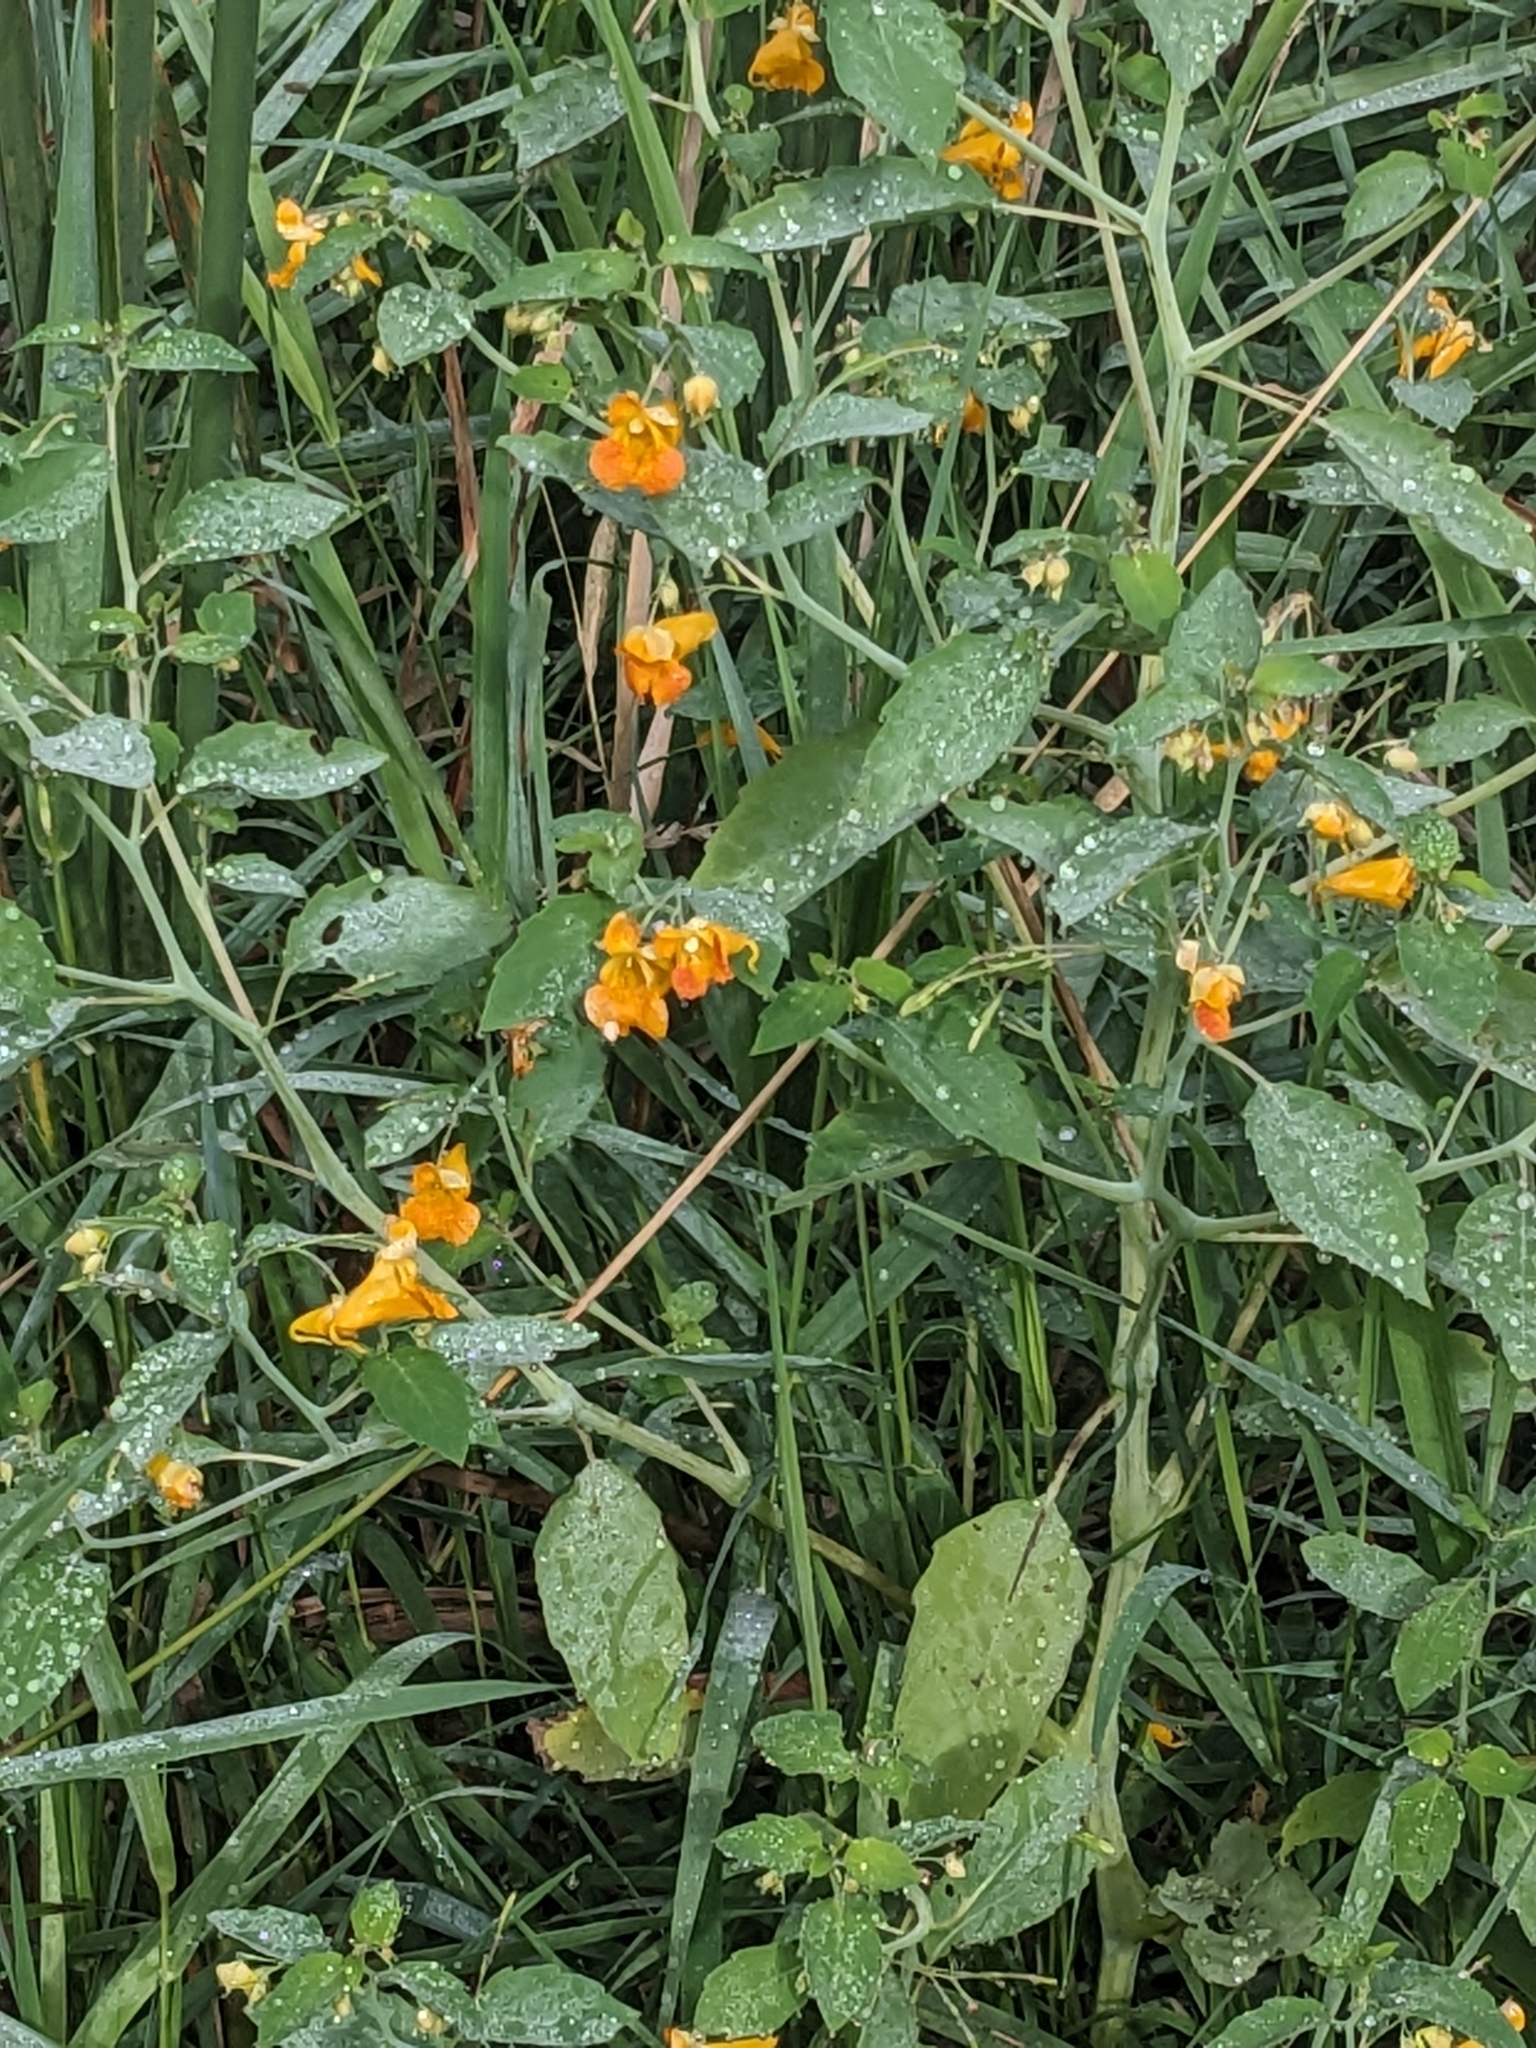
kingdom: Plantae
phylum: Tracheophyta
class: Magnoliopsida
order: Ericales
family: Balsaminaceae
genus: Impatiens
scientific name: Impatiens capensis
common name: Orange balsam
